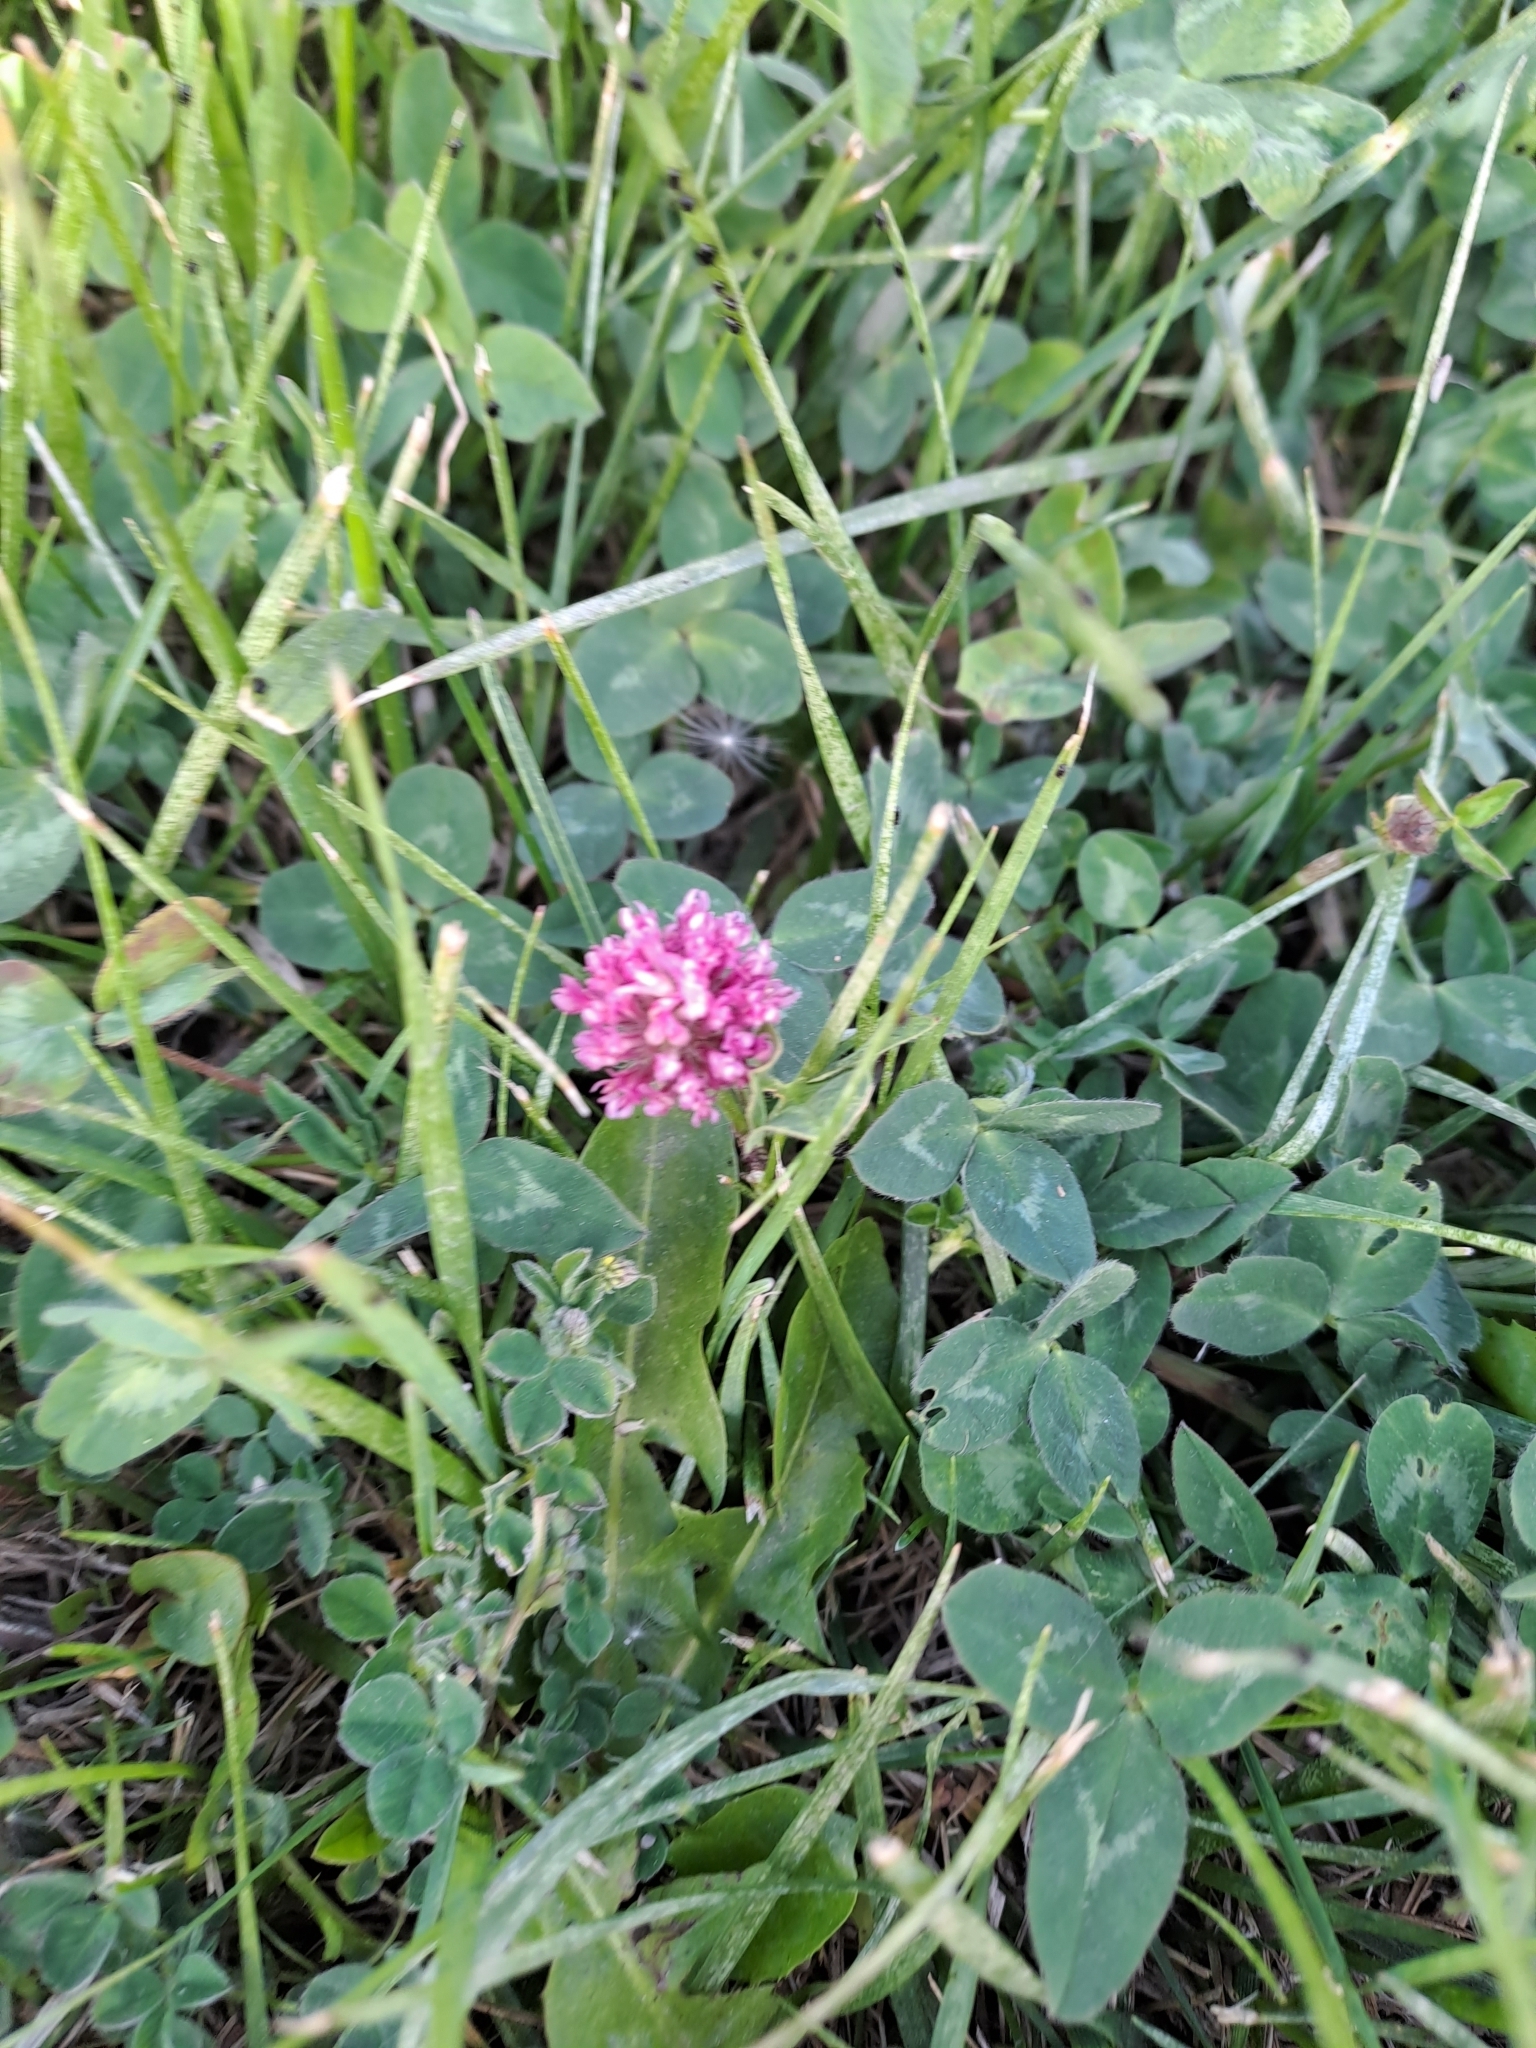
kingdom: Plantae
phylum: Tracheophyta
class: Magnoliopsida
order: Fabales
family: Fabaceae
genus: Trifolium
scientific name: Trifolium pratense
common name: Red clover
